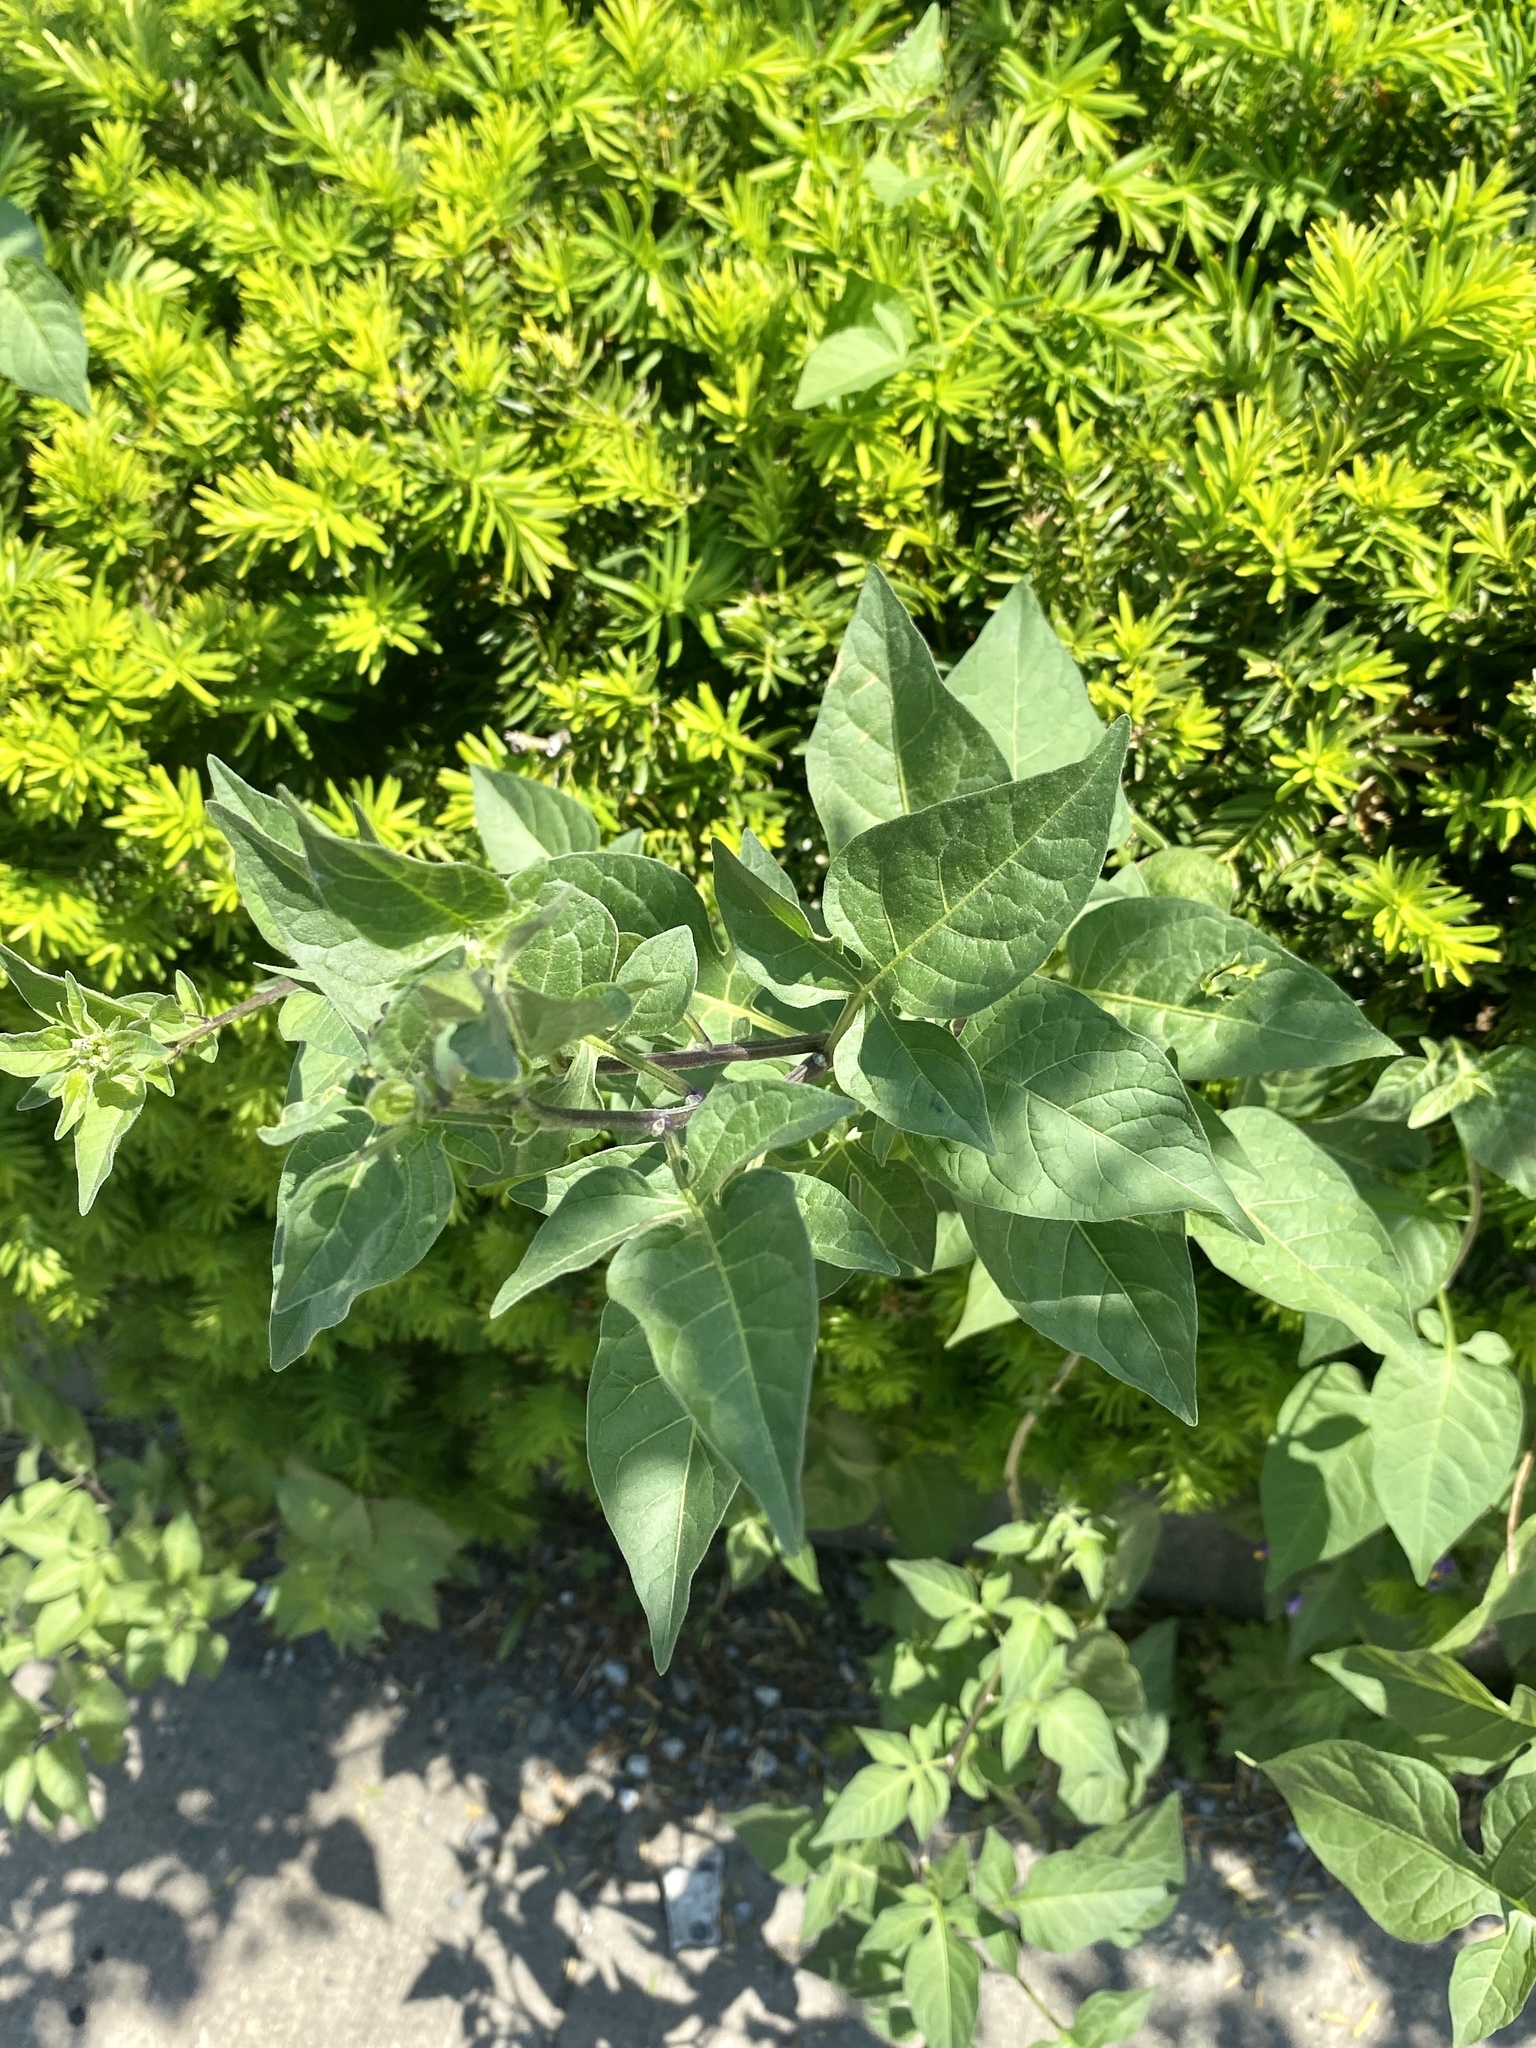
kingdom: Plantae
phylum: Tracheophyta
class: Magnoliopsida
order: Solanales
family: Solanaceae
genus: Solanum
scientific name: Solanum dulcamara
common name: Climbing nightshade
